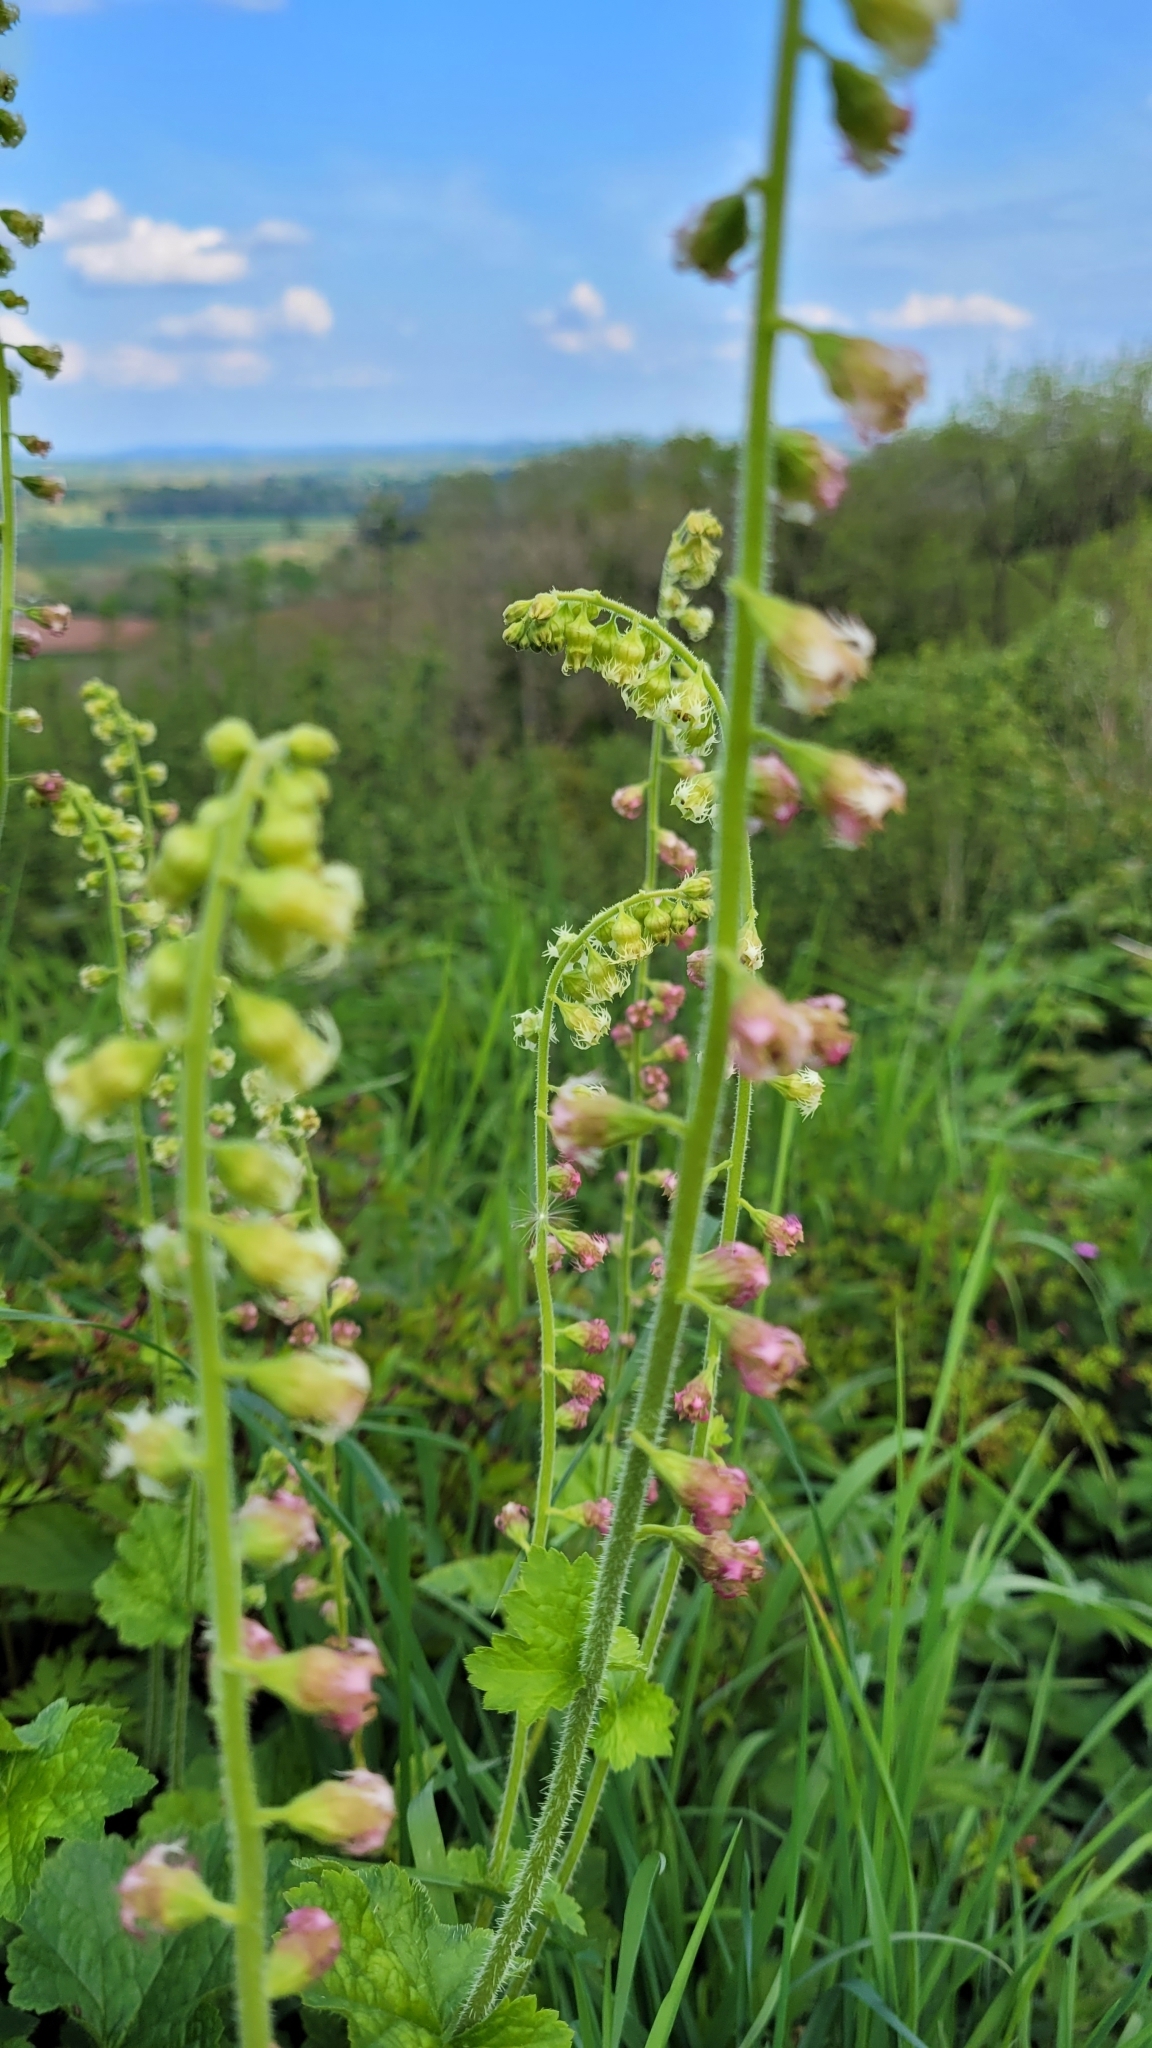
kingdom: Plantae
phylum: Tracheophyta
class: Magnoliopsida
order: Saxifragales
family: Saxifragaceae
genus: Tellima
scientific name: Tellima grandiflora
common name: Fringecups
